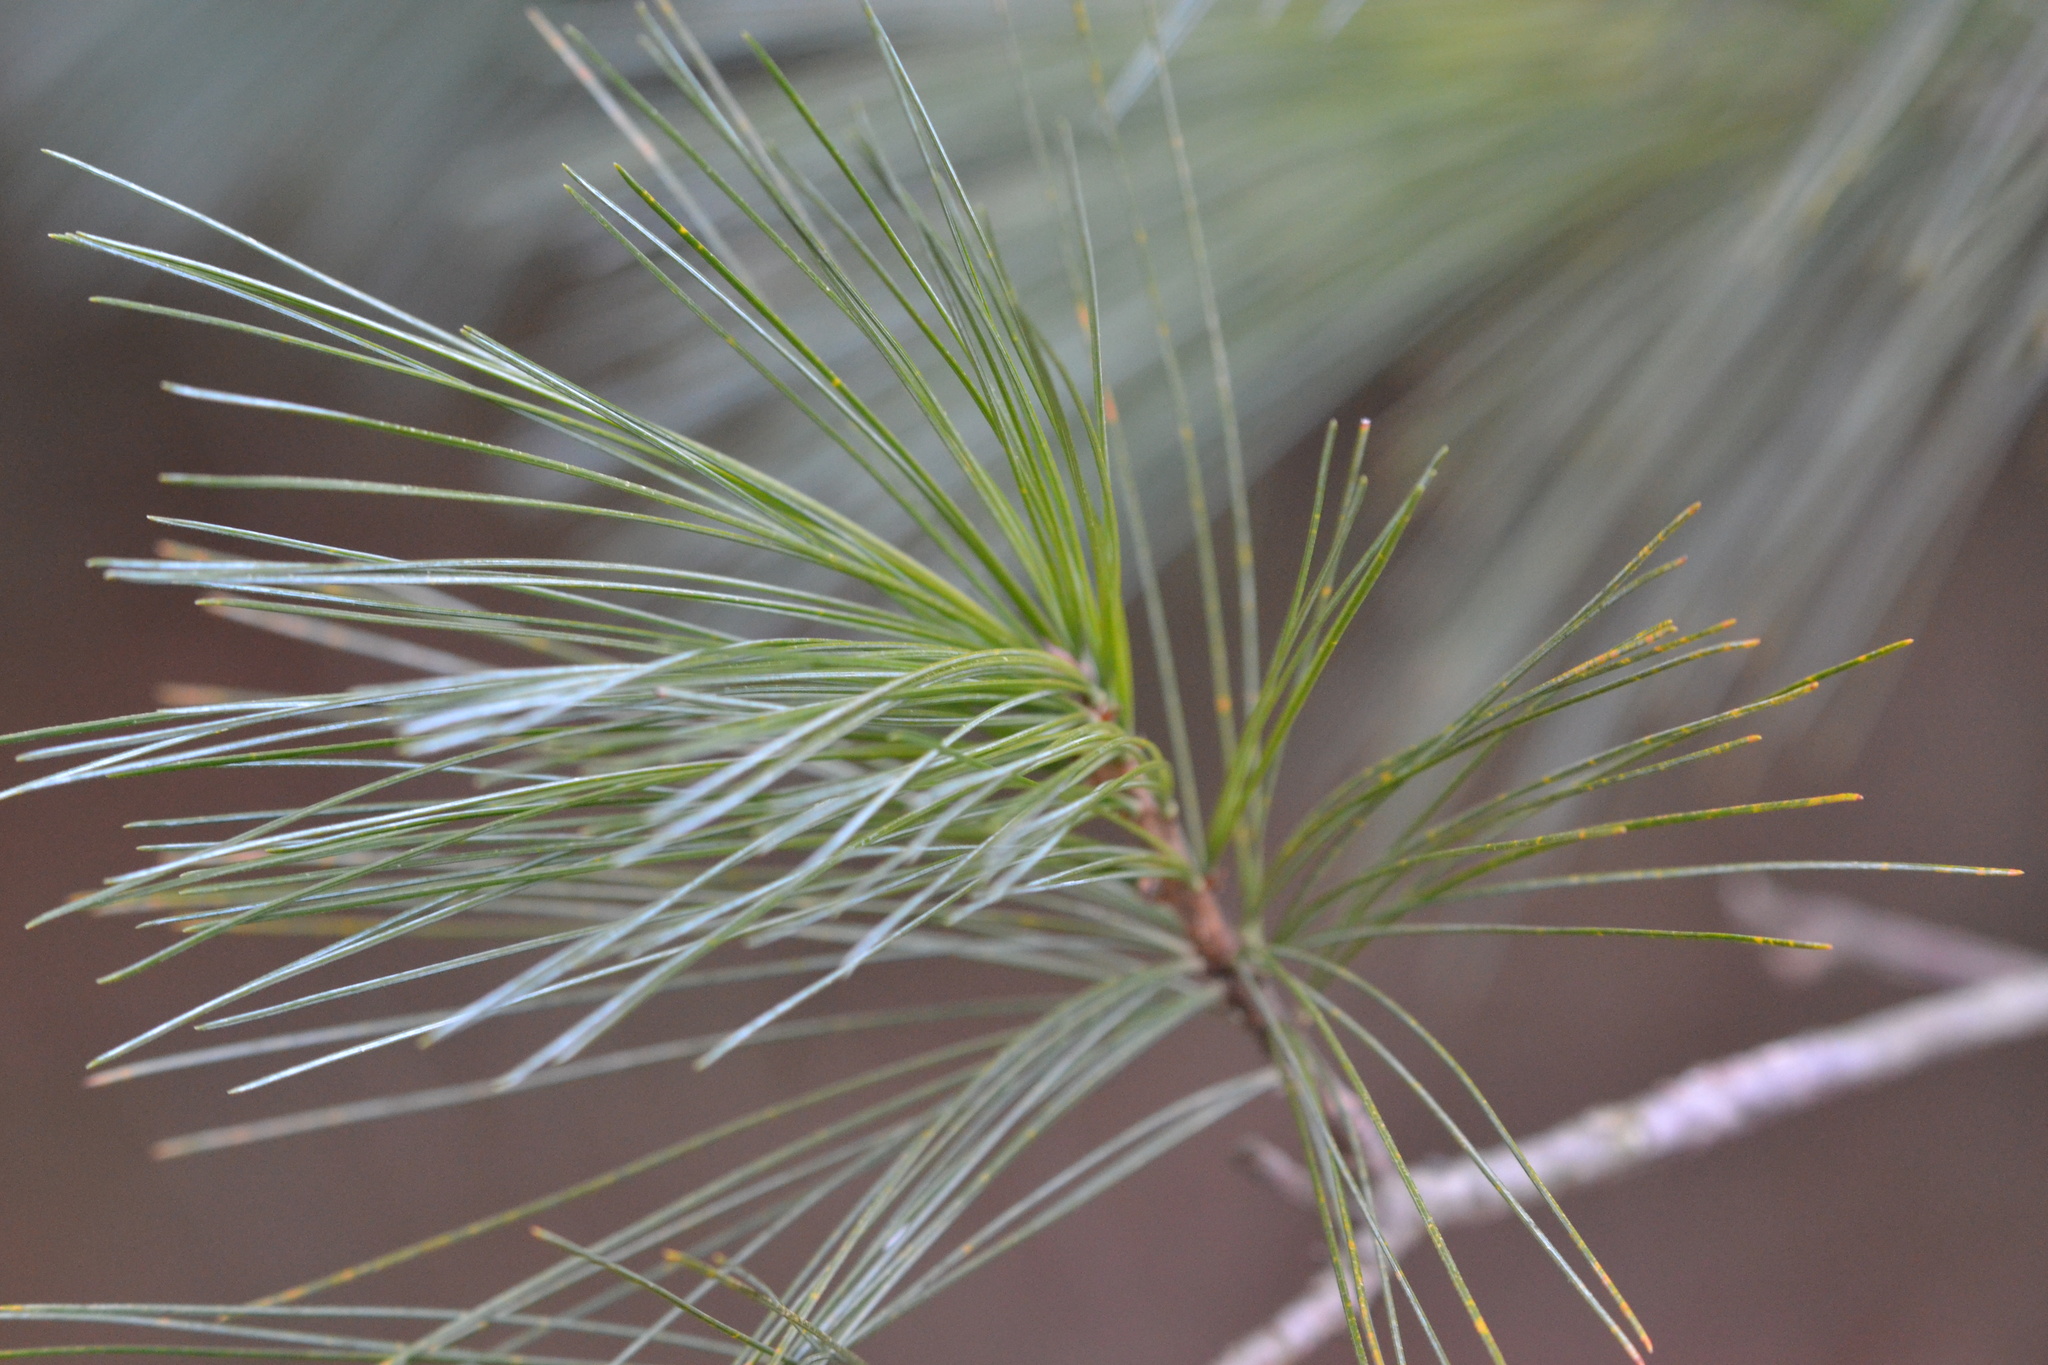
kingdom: Plantae
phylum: Tracheophyta
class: Pinopsida
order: Pinales
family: Pinaceae
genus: Pinus
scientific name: Pinus strobus
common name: Weymouth pine
